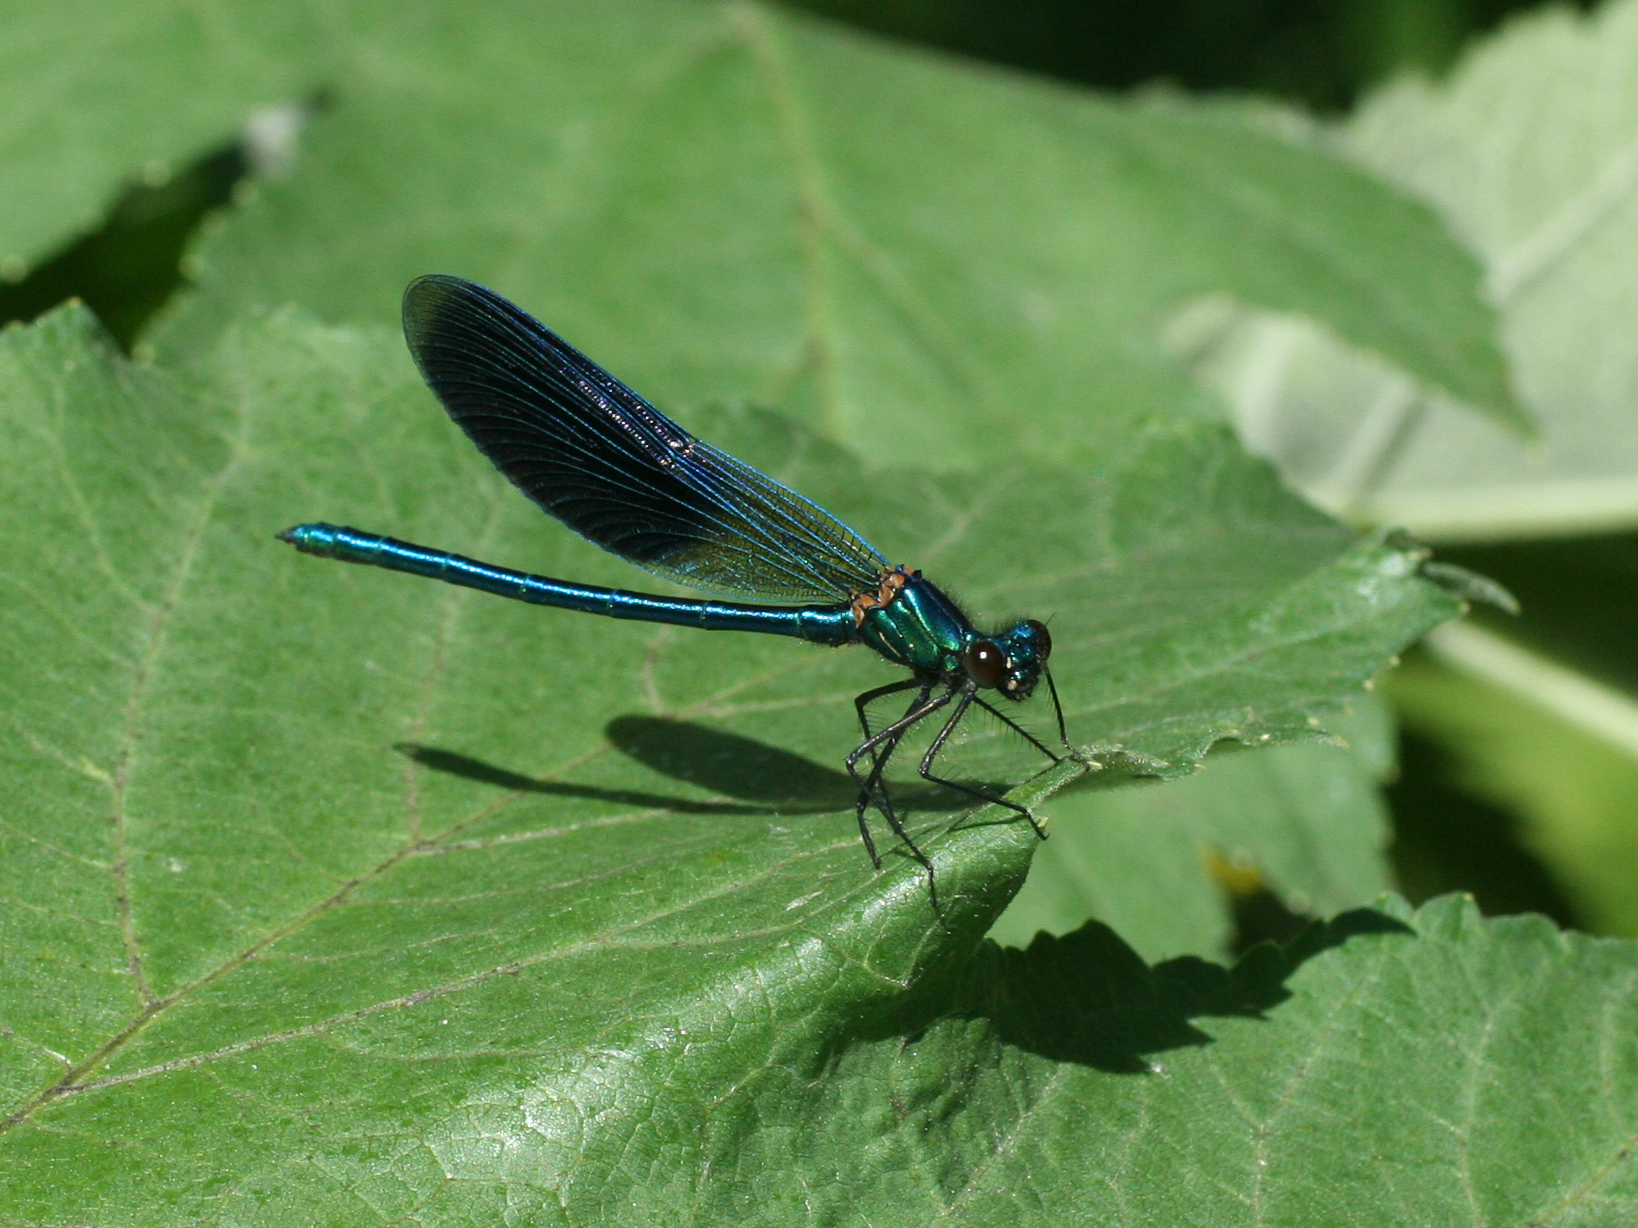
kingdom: Animalia
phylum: Arthropoda
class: Insecta
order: Odonata
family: Calopterygidae
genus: Calopteryx
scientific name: Calopteryx splendens
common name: Banded demoiselle
